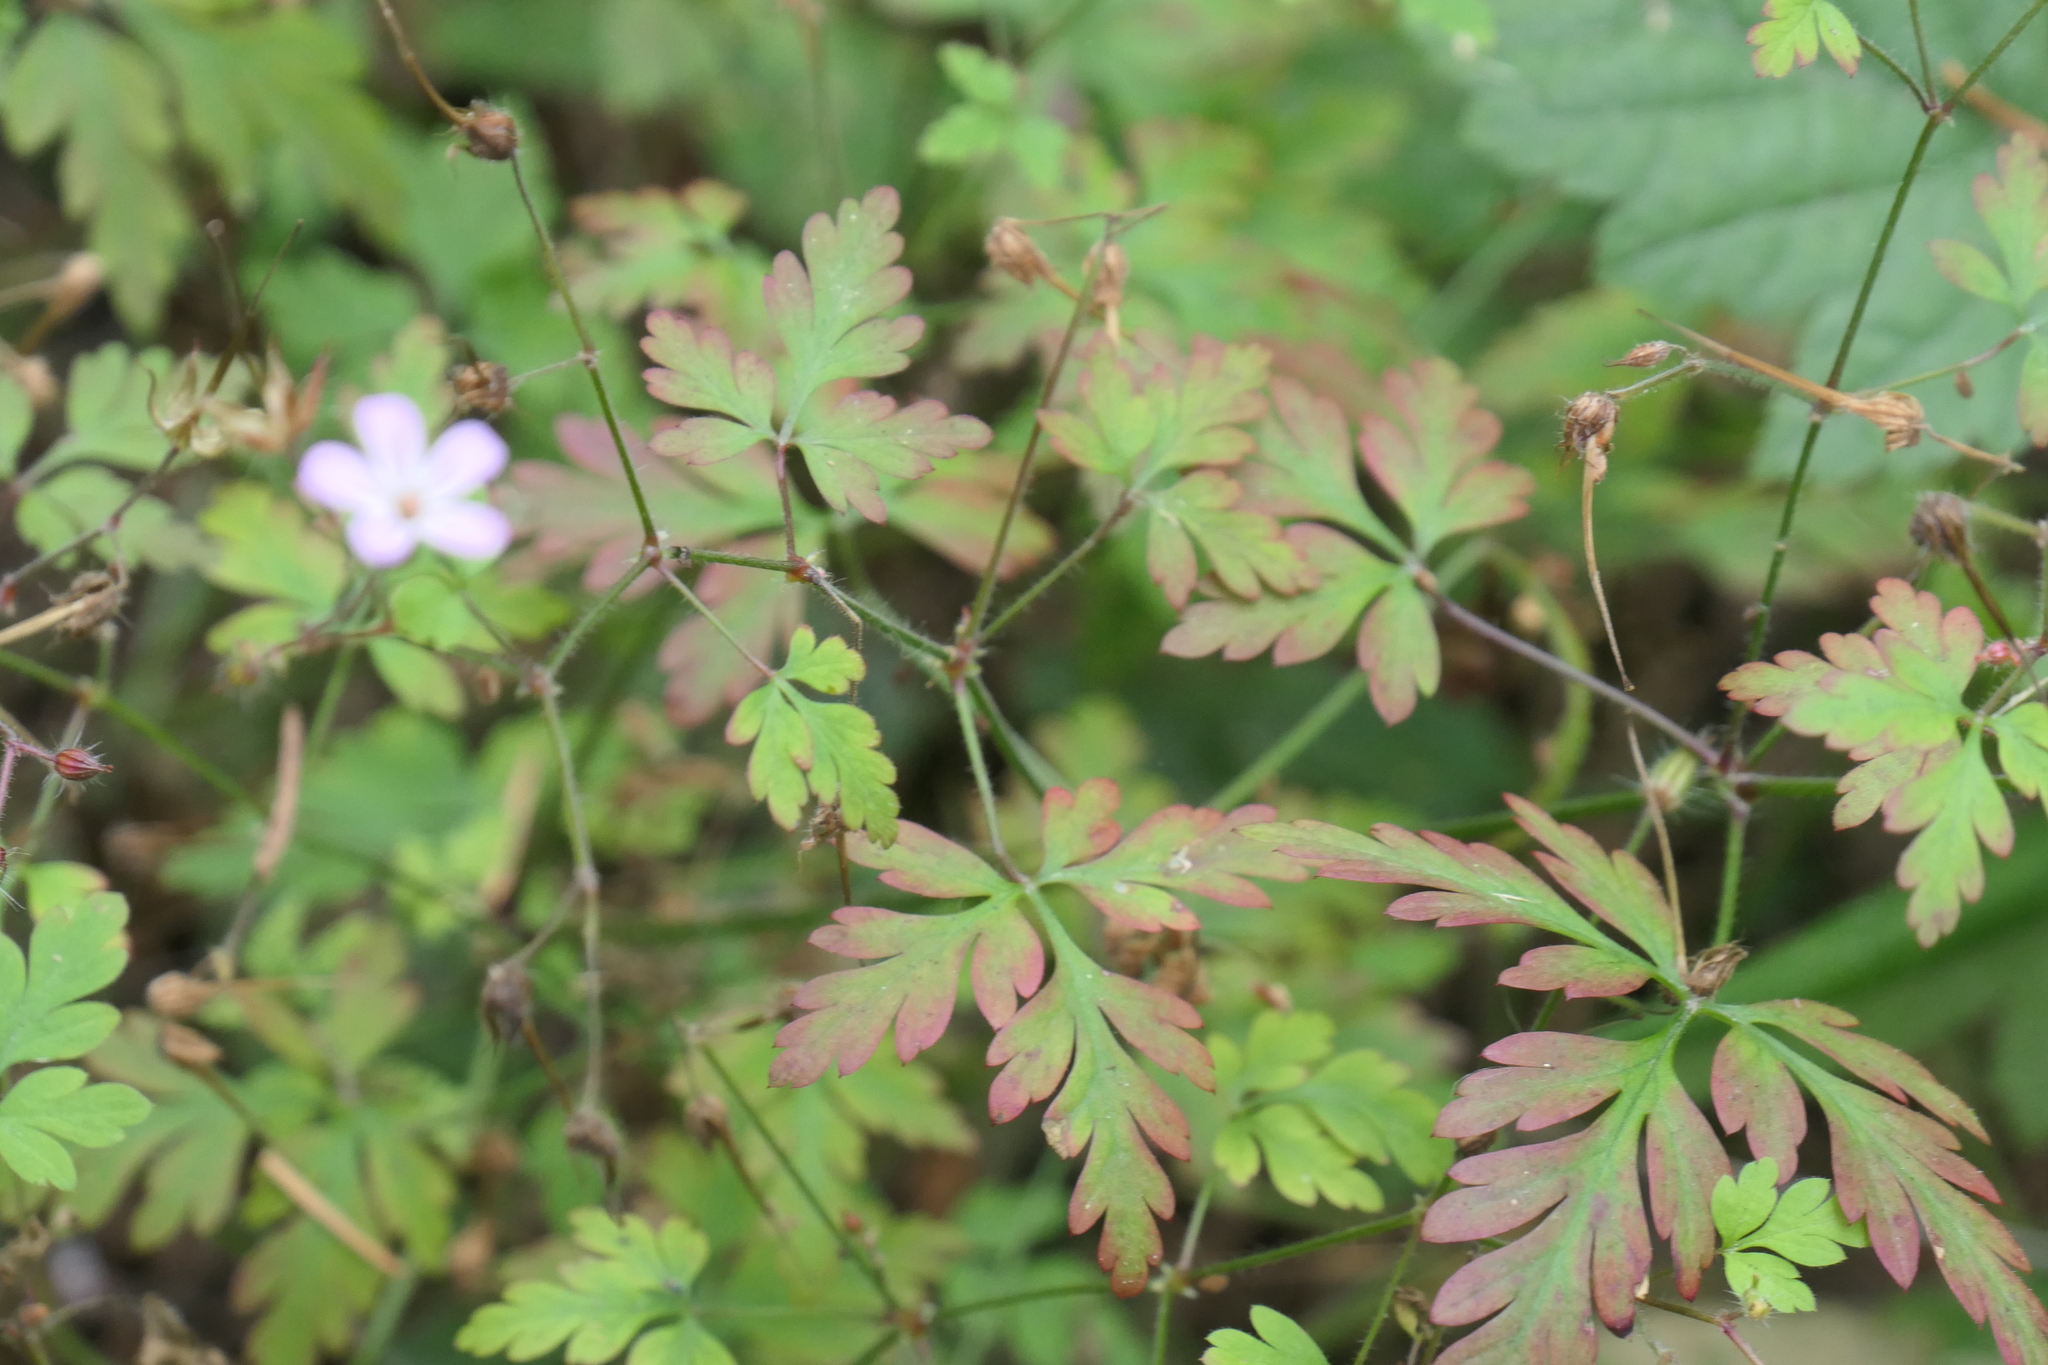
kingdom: Plantae
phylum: Tracheophyta
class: Magnoliopsida
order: Geraniales
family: Geraniaceae
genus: Geranium
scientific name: Geranium robertianum
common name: Herb-robert
